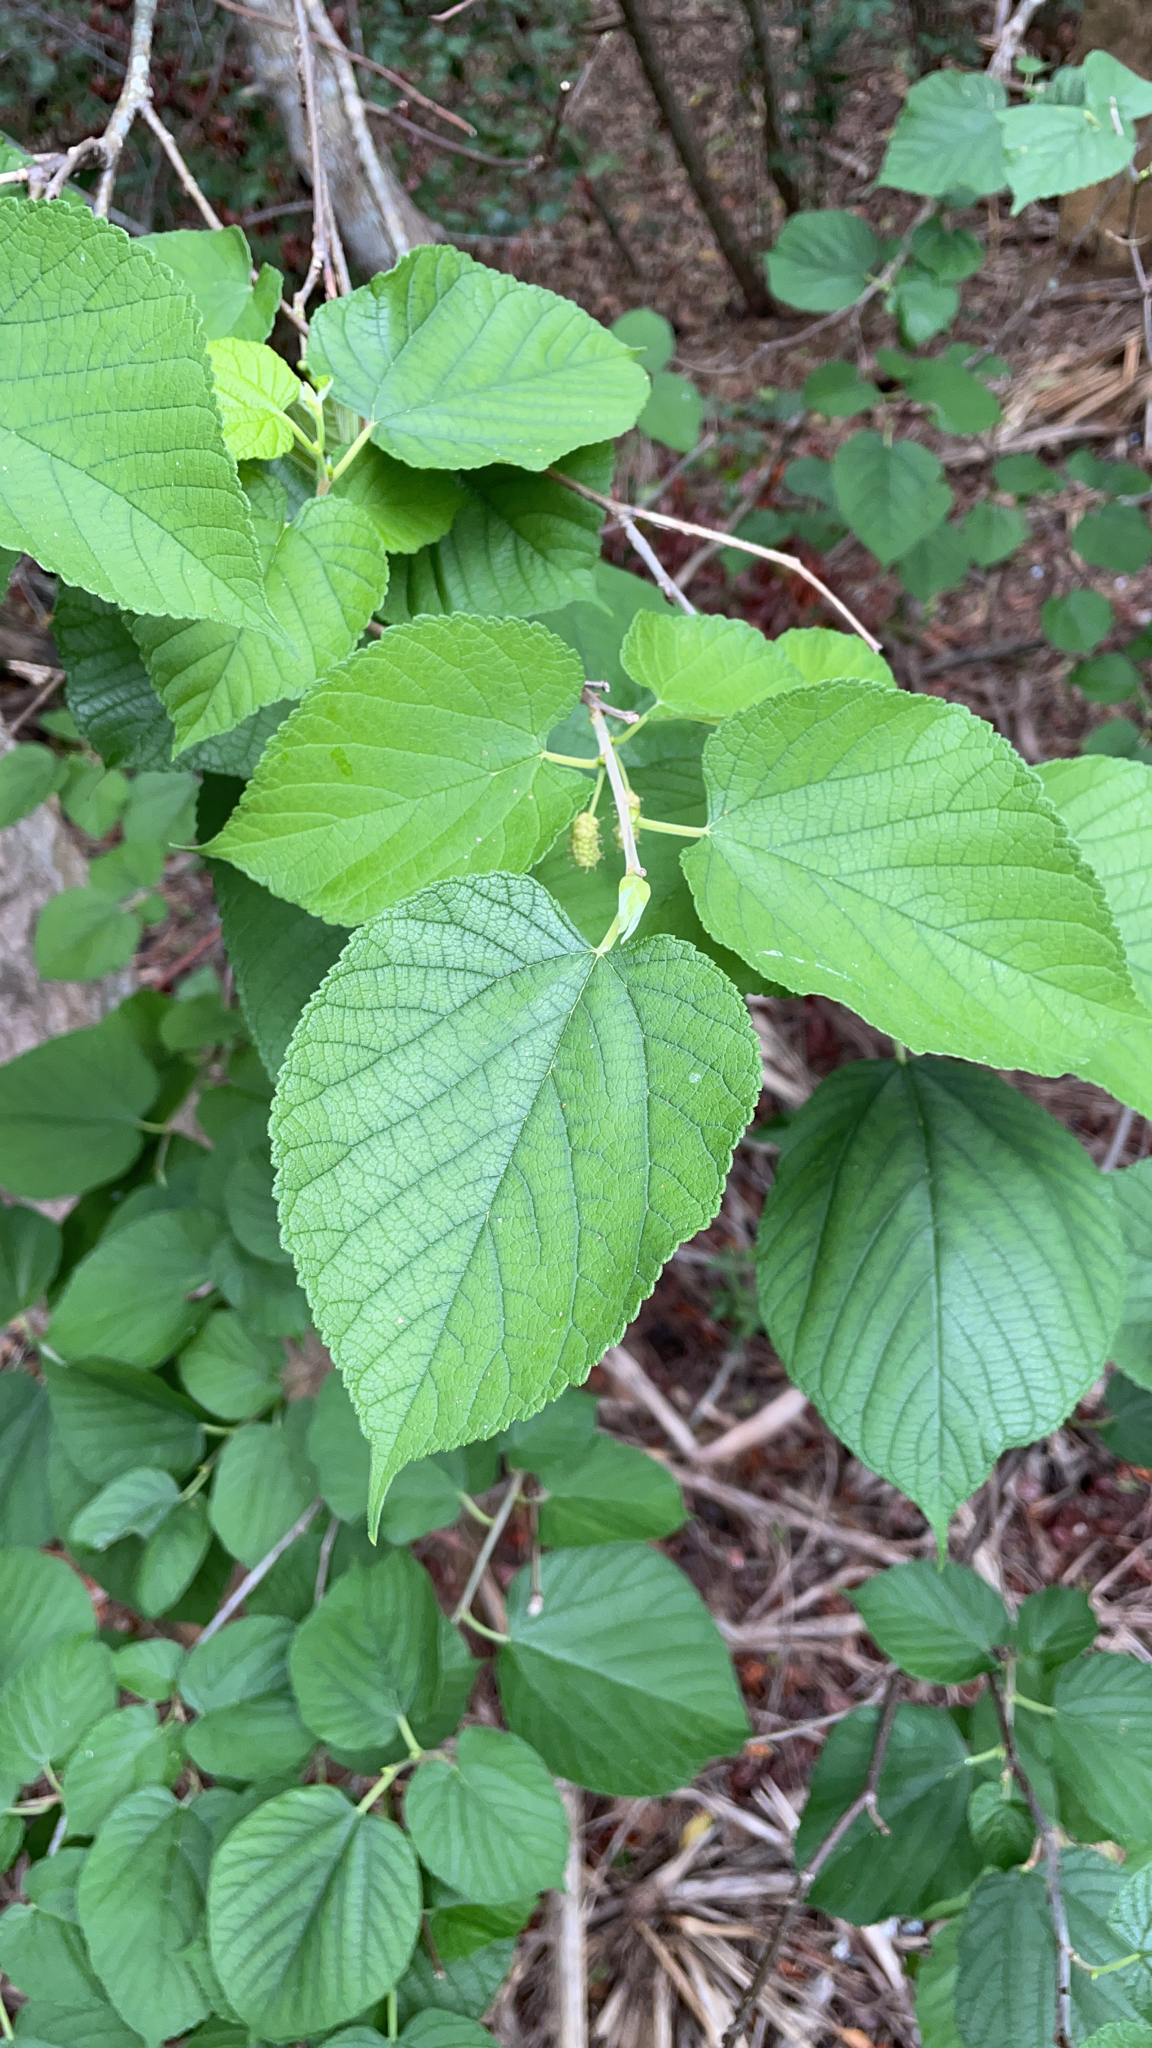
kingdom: Plantae
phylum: Tracheophyta
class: Magnoliopsida
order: Rosales
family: Moraceae
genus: Morus
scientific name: Morus rubra
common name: Red mulberry
